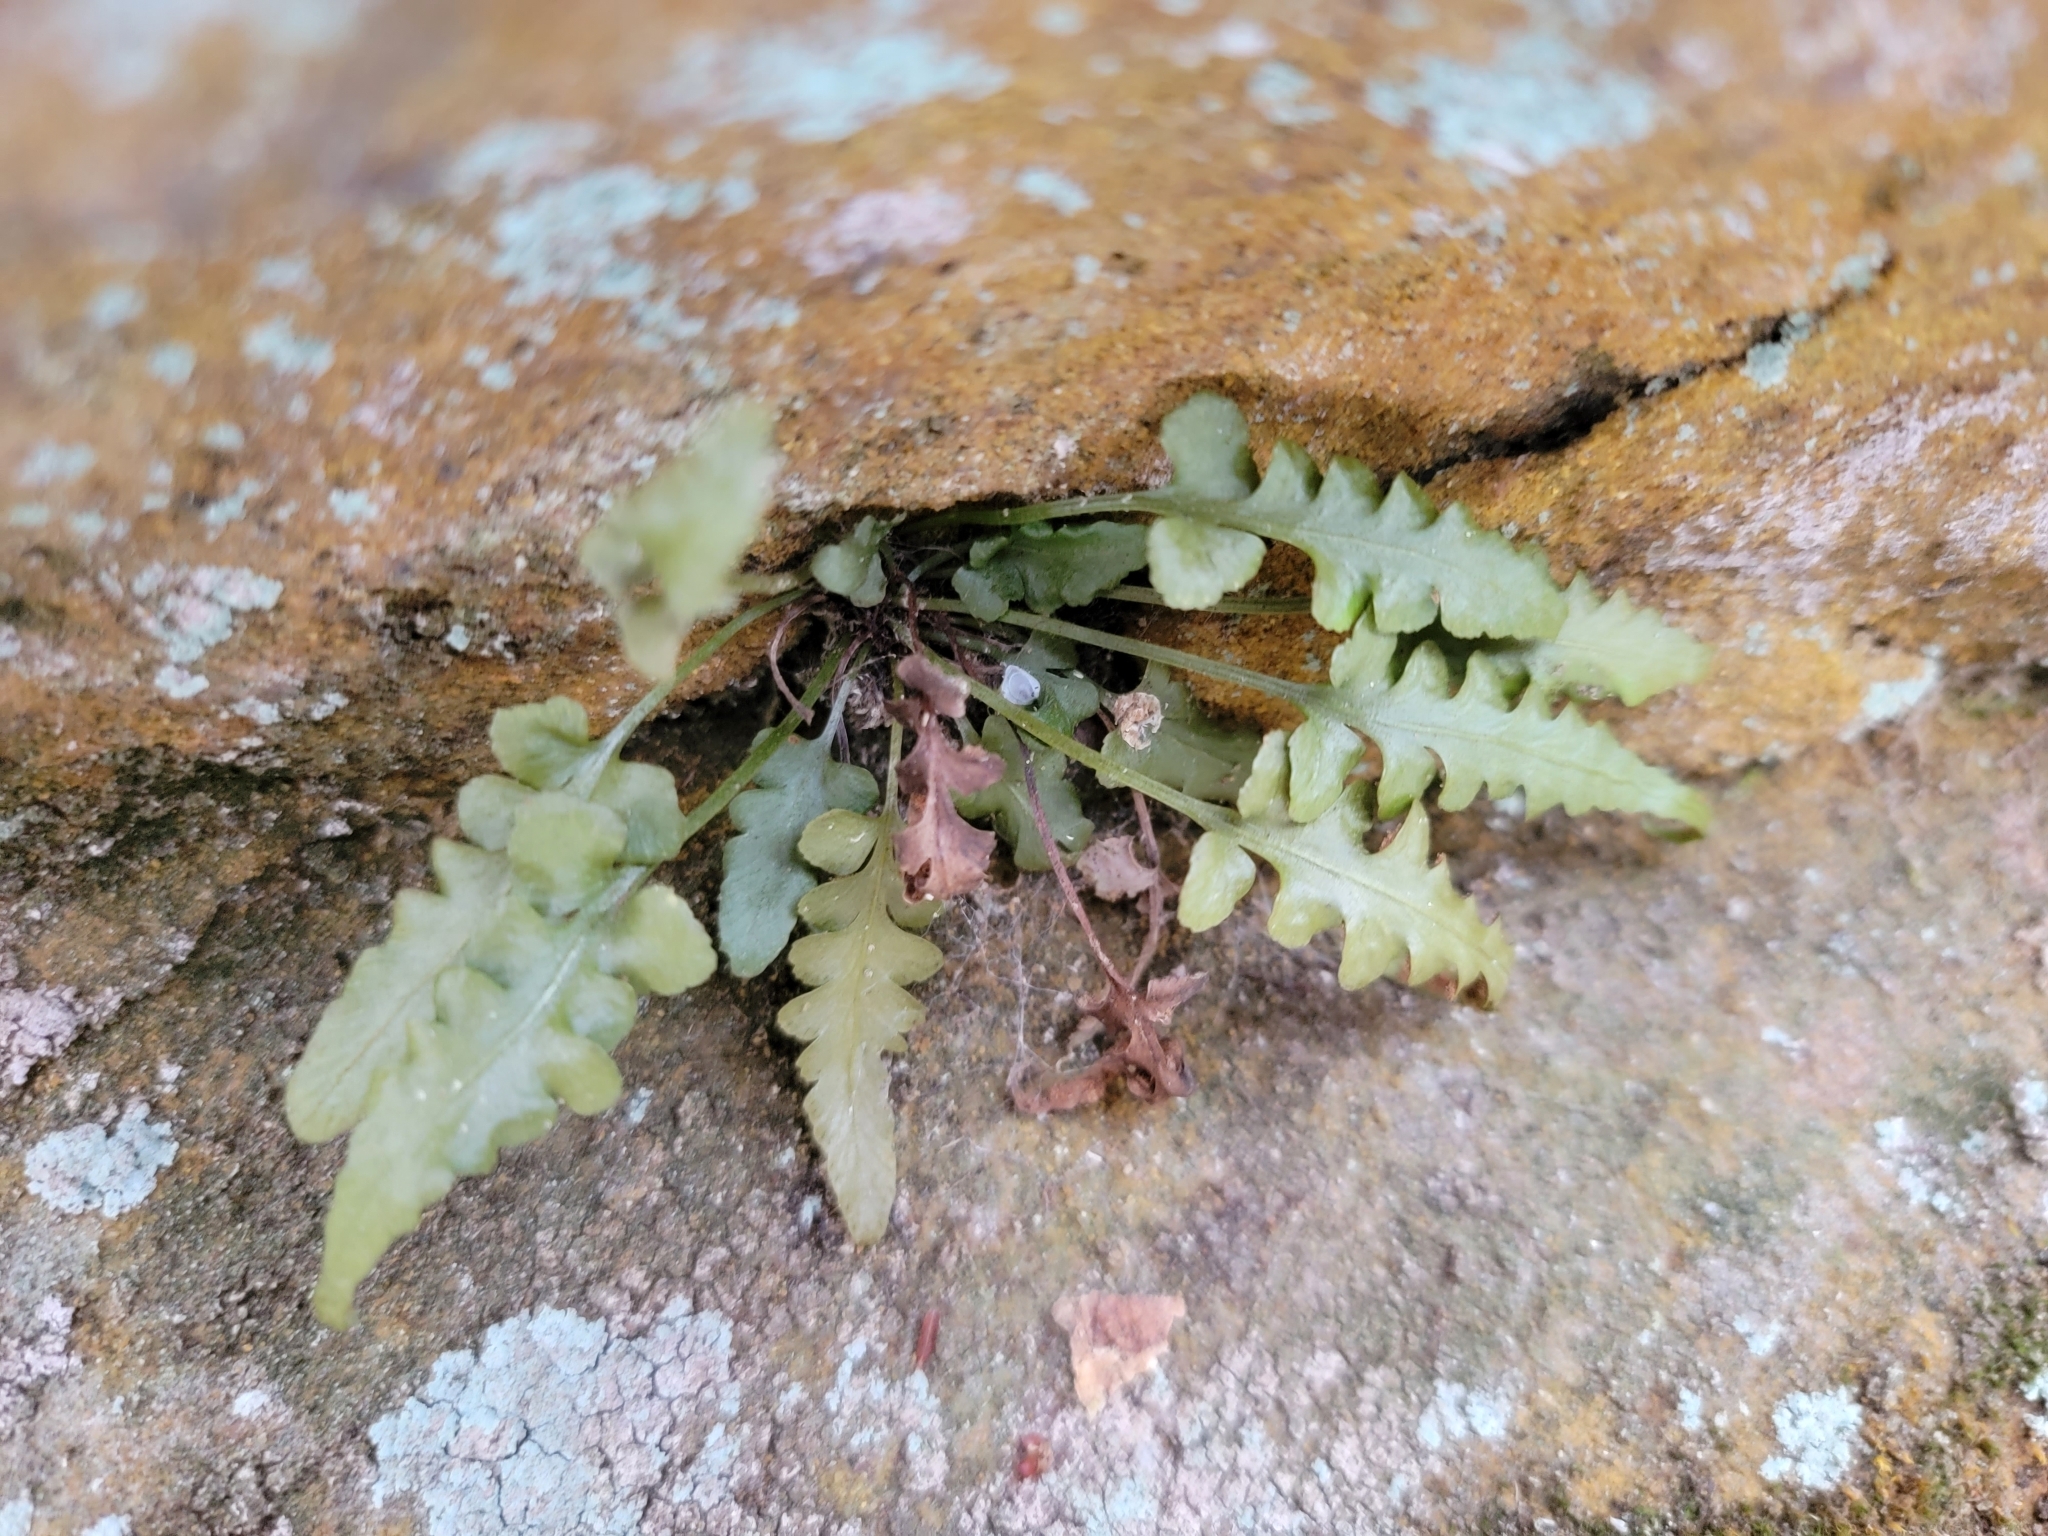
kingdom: Plantae
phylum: Tracheophyta
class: Polypodiopsida
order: Polypodiales
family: Aspleniaceae
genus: Asplenium
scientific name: Asplenium pinnatifidum
